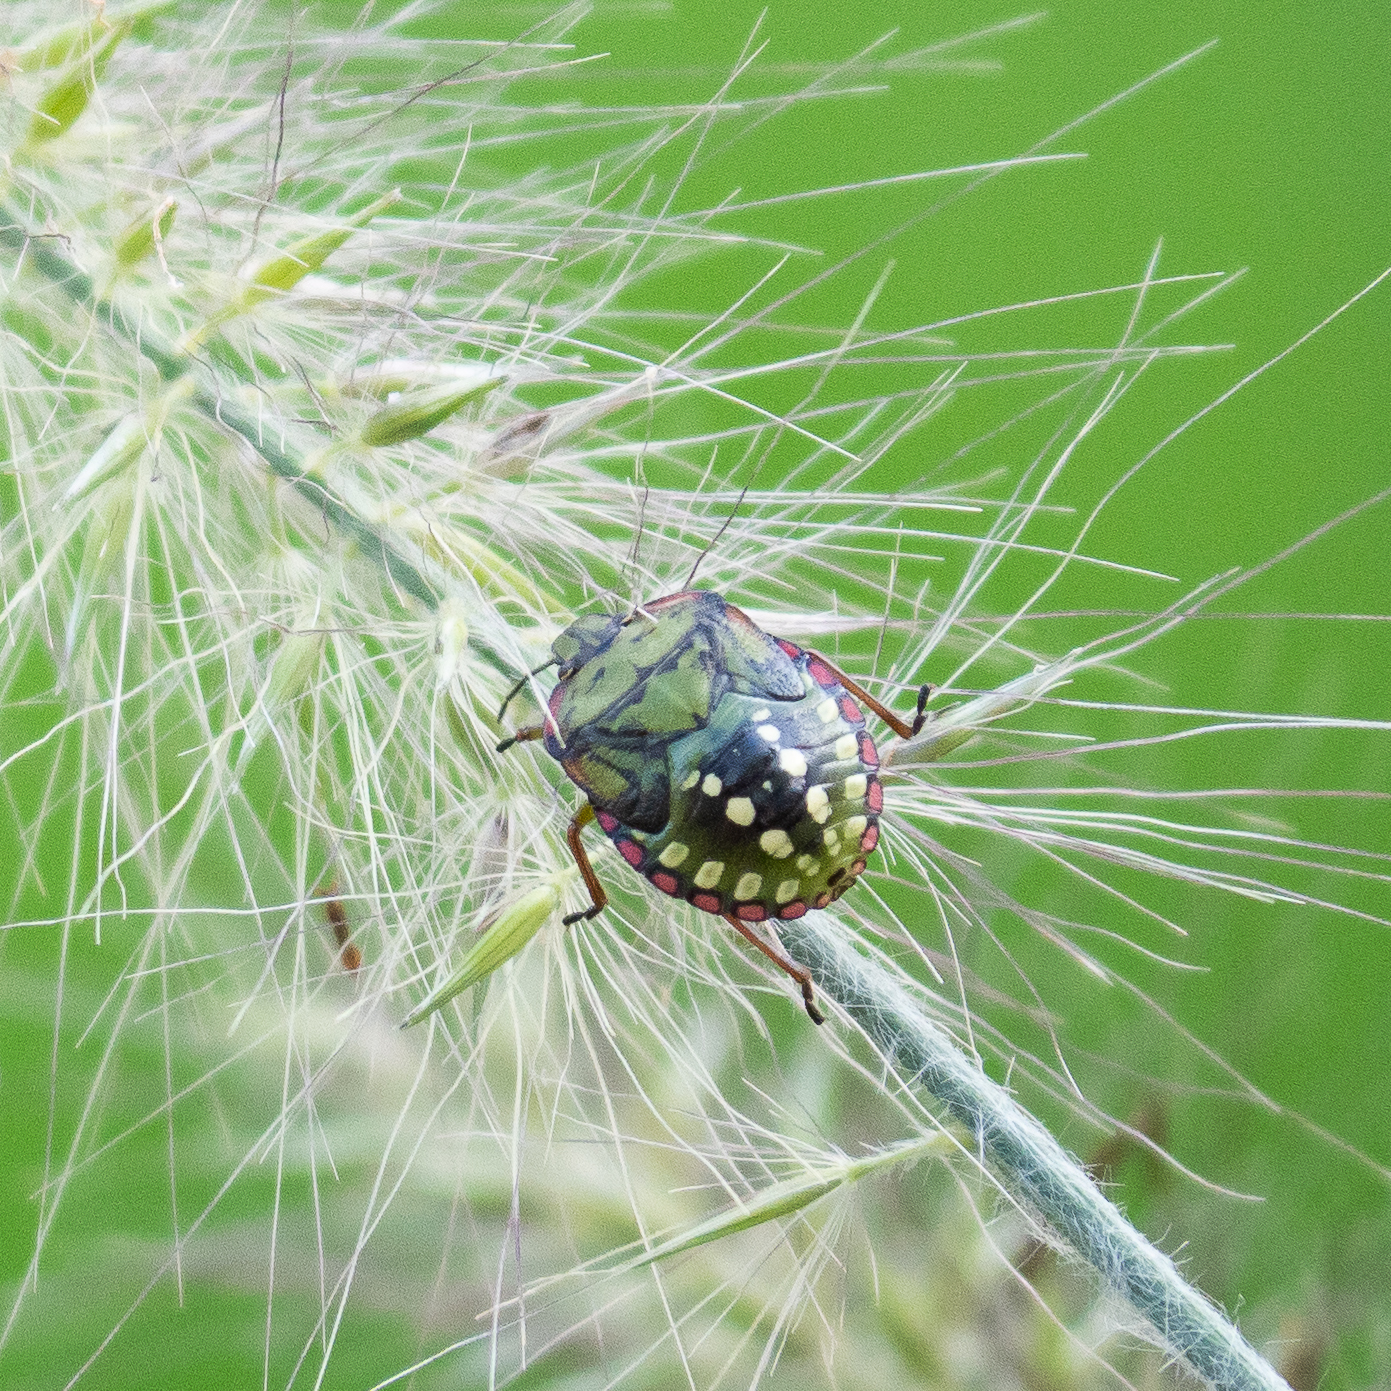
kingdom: Animalia
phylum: Arthropoda
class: Insecta
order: Hemiptera
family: Pentatomidae
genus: Nezara
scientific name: Nezara viridula
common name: Southern green stink bug
